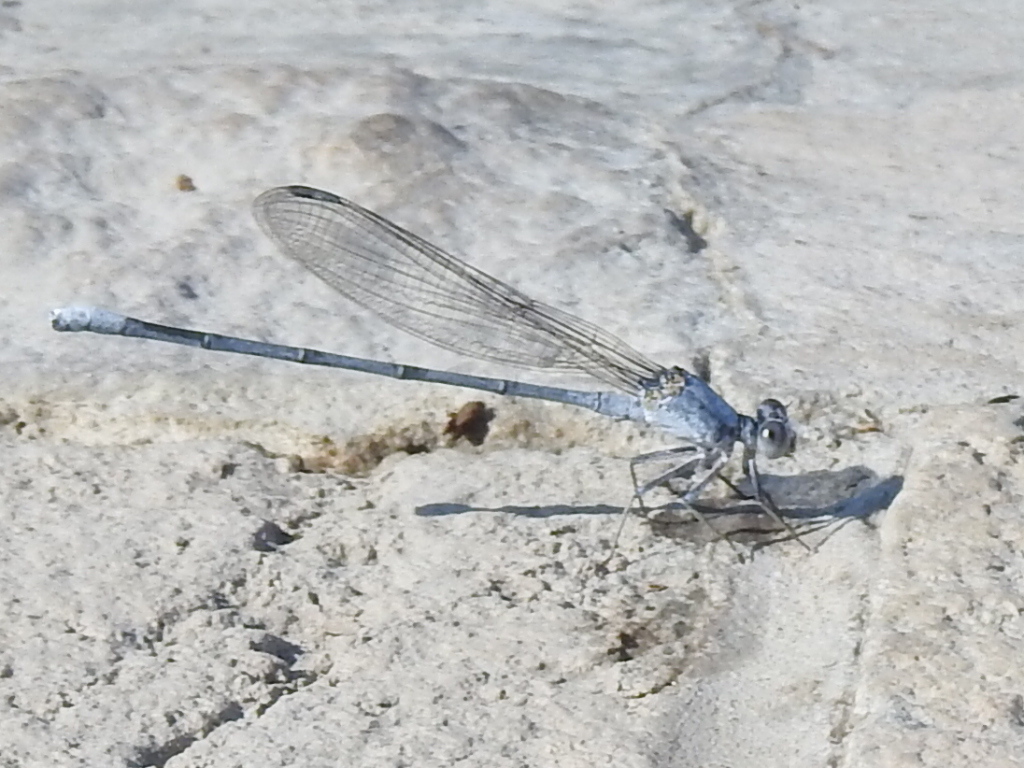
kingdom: Animalia
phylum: Arthropoda
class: Insecta
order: Odonata
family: Coenagrionidae
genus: Argia
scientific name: Argia moesta
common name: Powdered dancer
